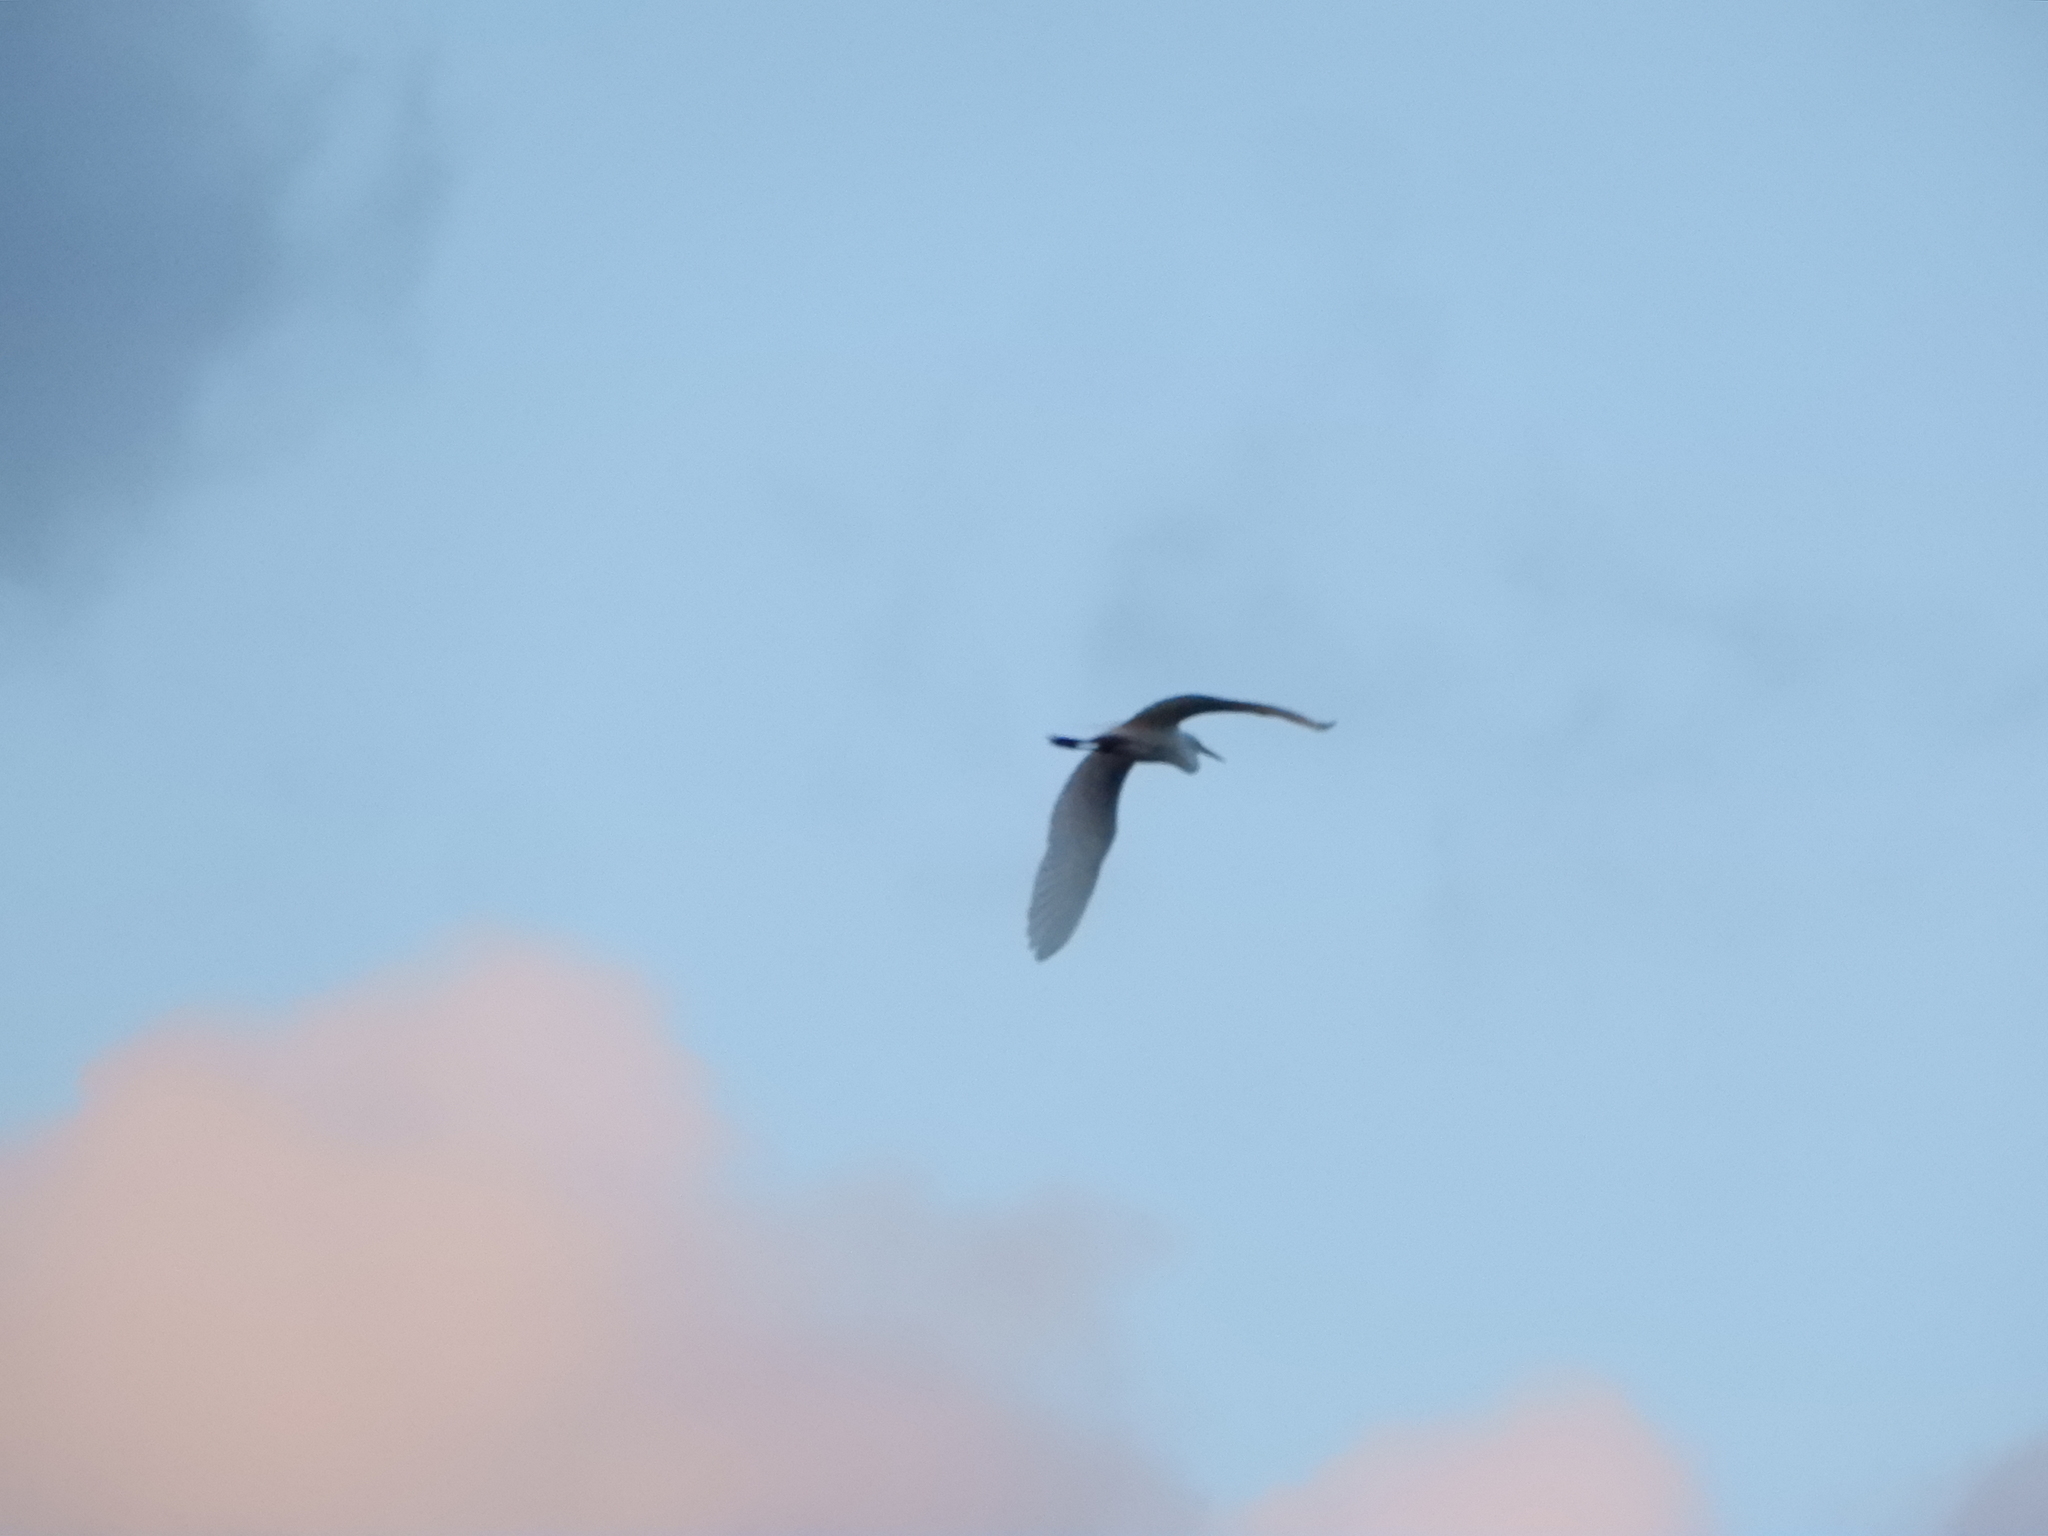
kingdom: Animalia
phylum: Chordata
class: Aves
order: Pelecaniformes
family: Ardeidae
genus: Ardea
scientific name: Ardea alba
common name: Great egret
